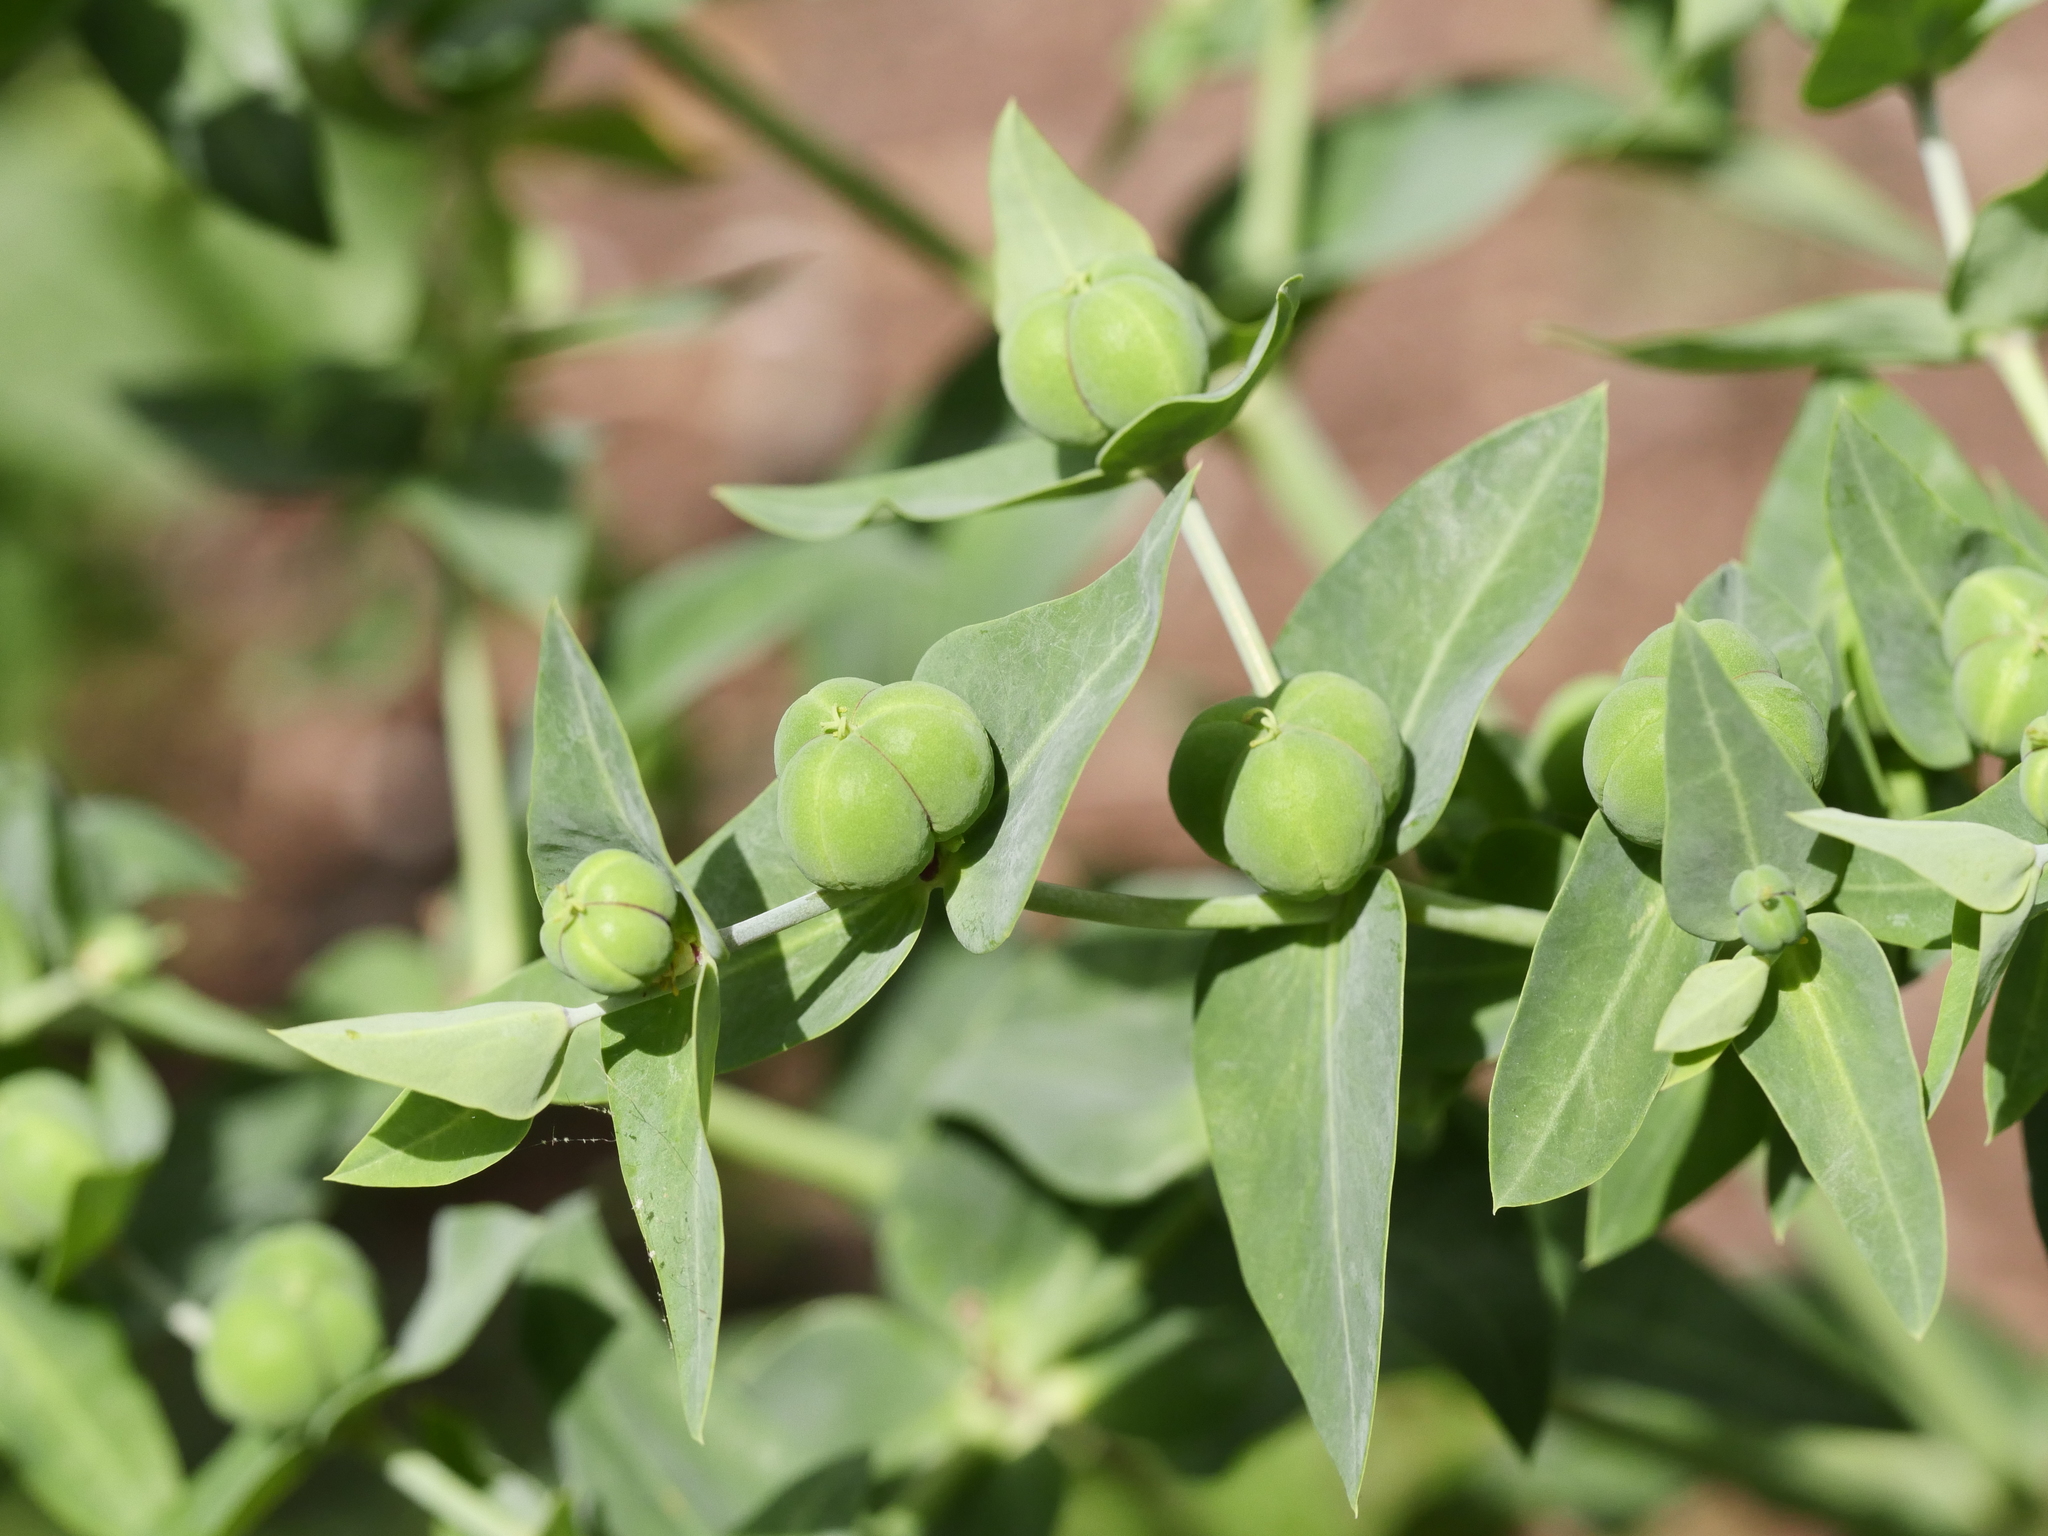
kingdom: Plantae
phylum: Tracheophyta
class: Magnoliopsida
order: Malpighiales
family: Euphorbiaceae
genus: Euphorbia
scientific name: Euphorbia lathyris
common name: Caper spurge
